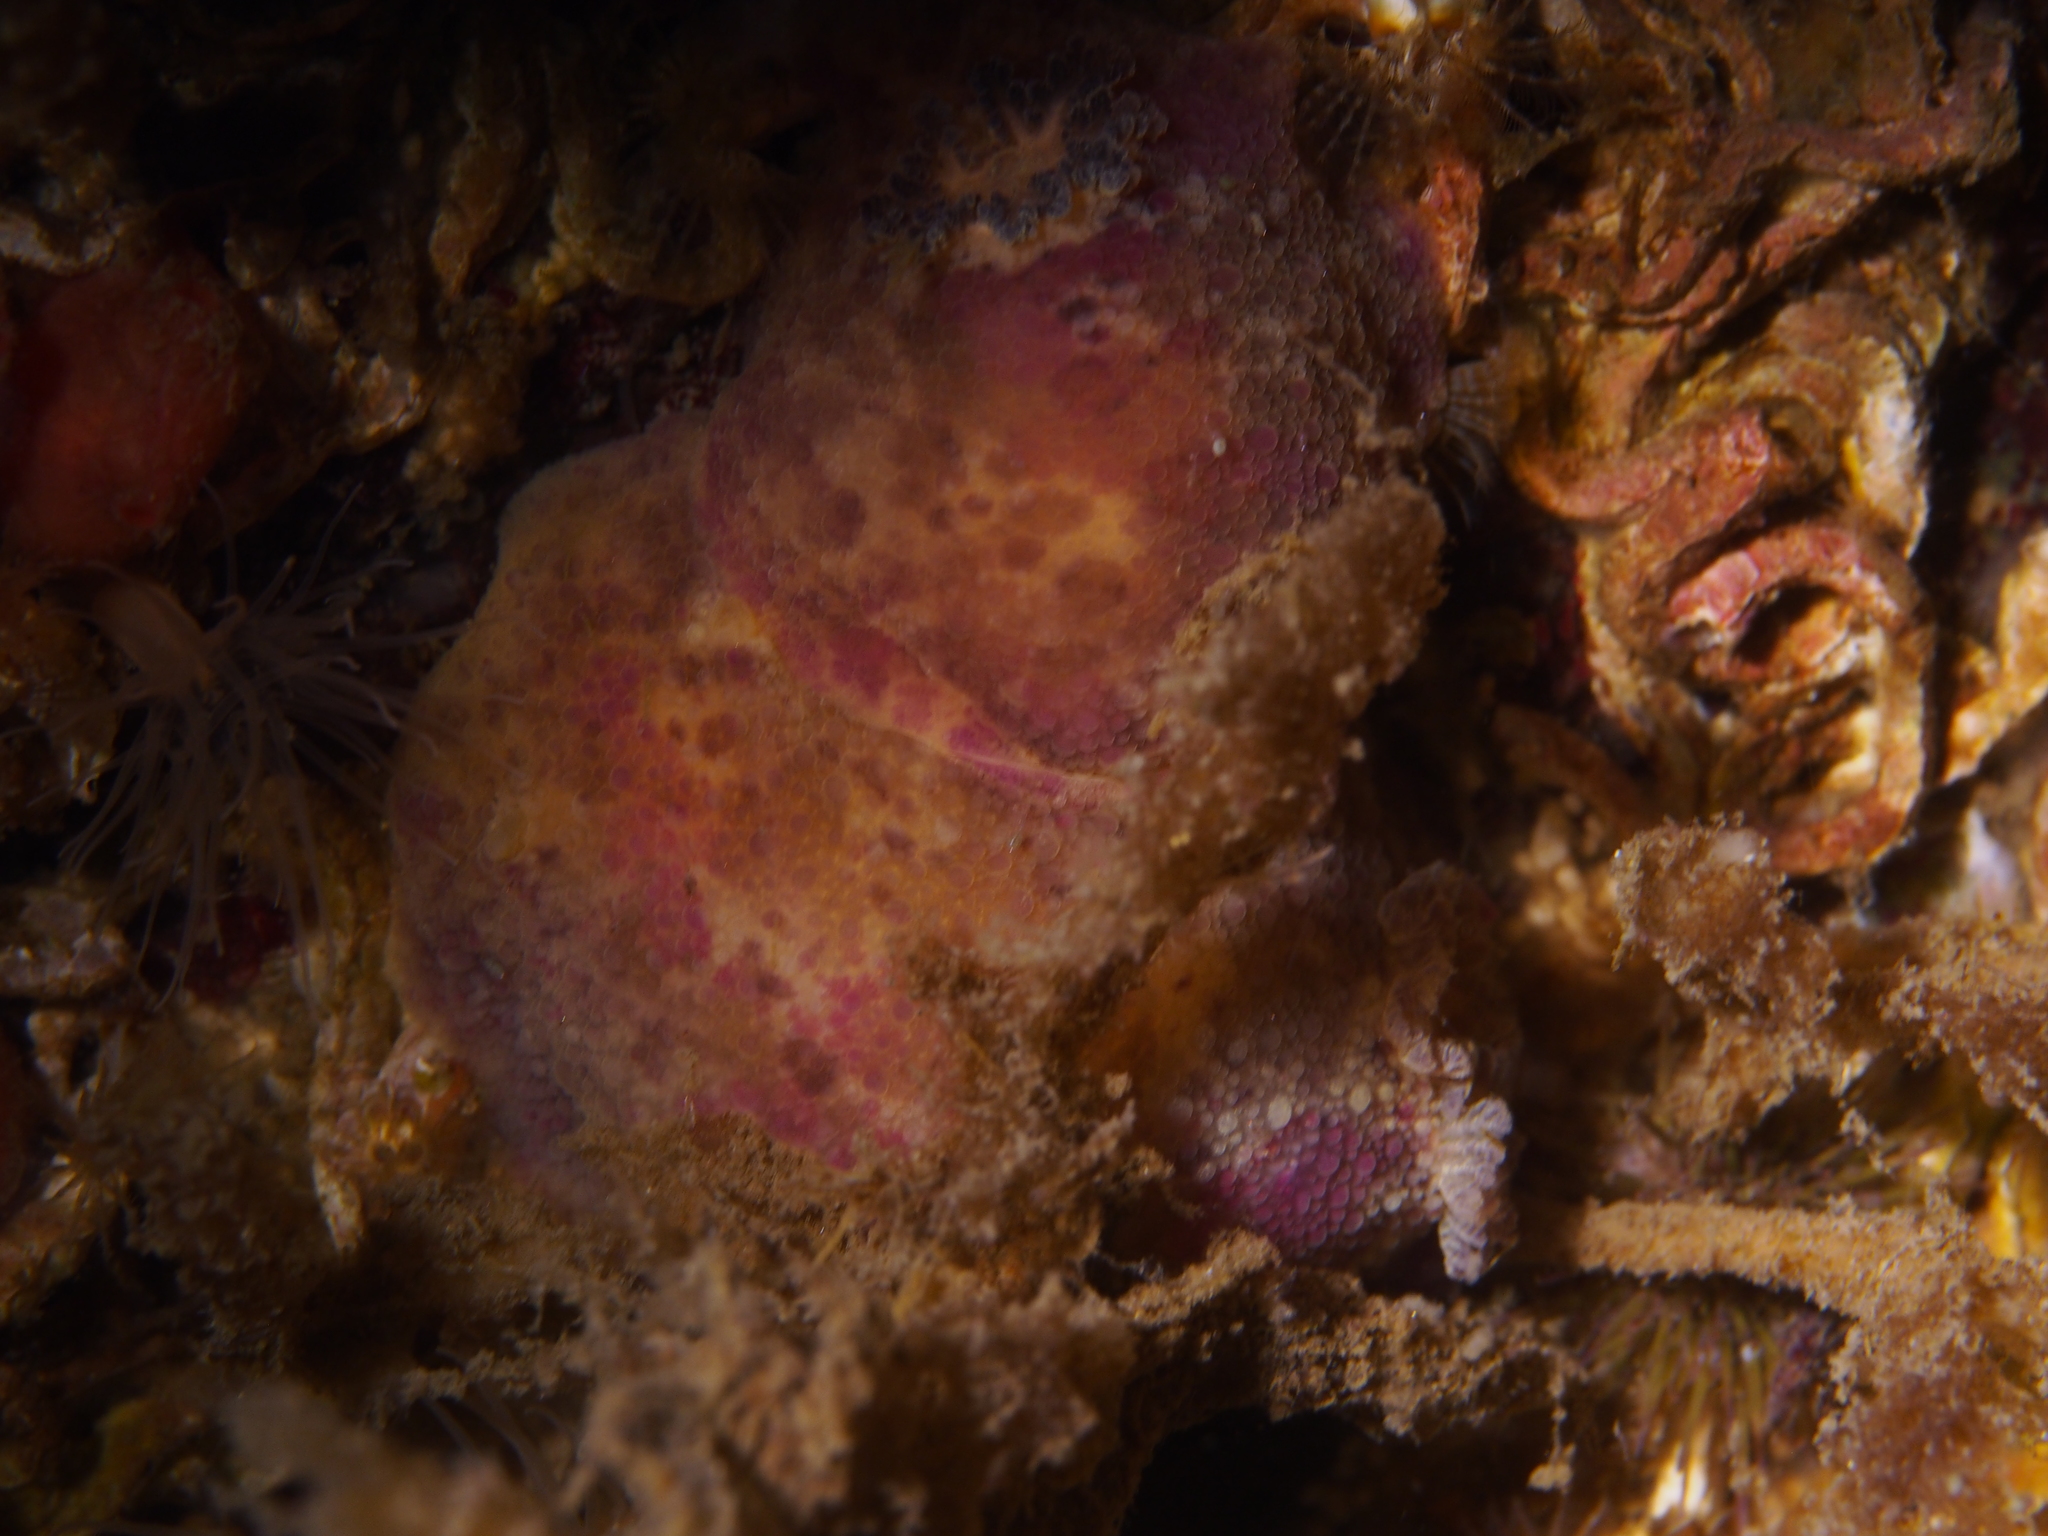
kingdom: Animalia
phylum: Mollusca
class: Gastropoda
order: Nudibranchia
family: Dorididae
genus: Doris
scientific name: Doris pseudoargus
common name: Sea lemon
